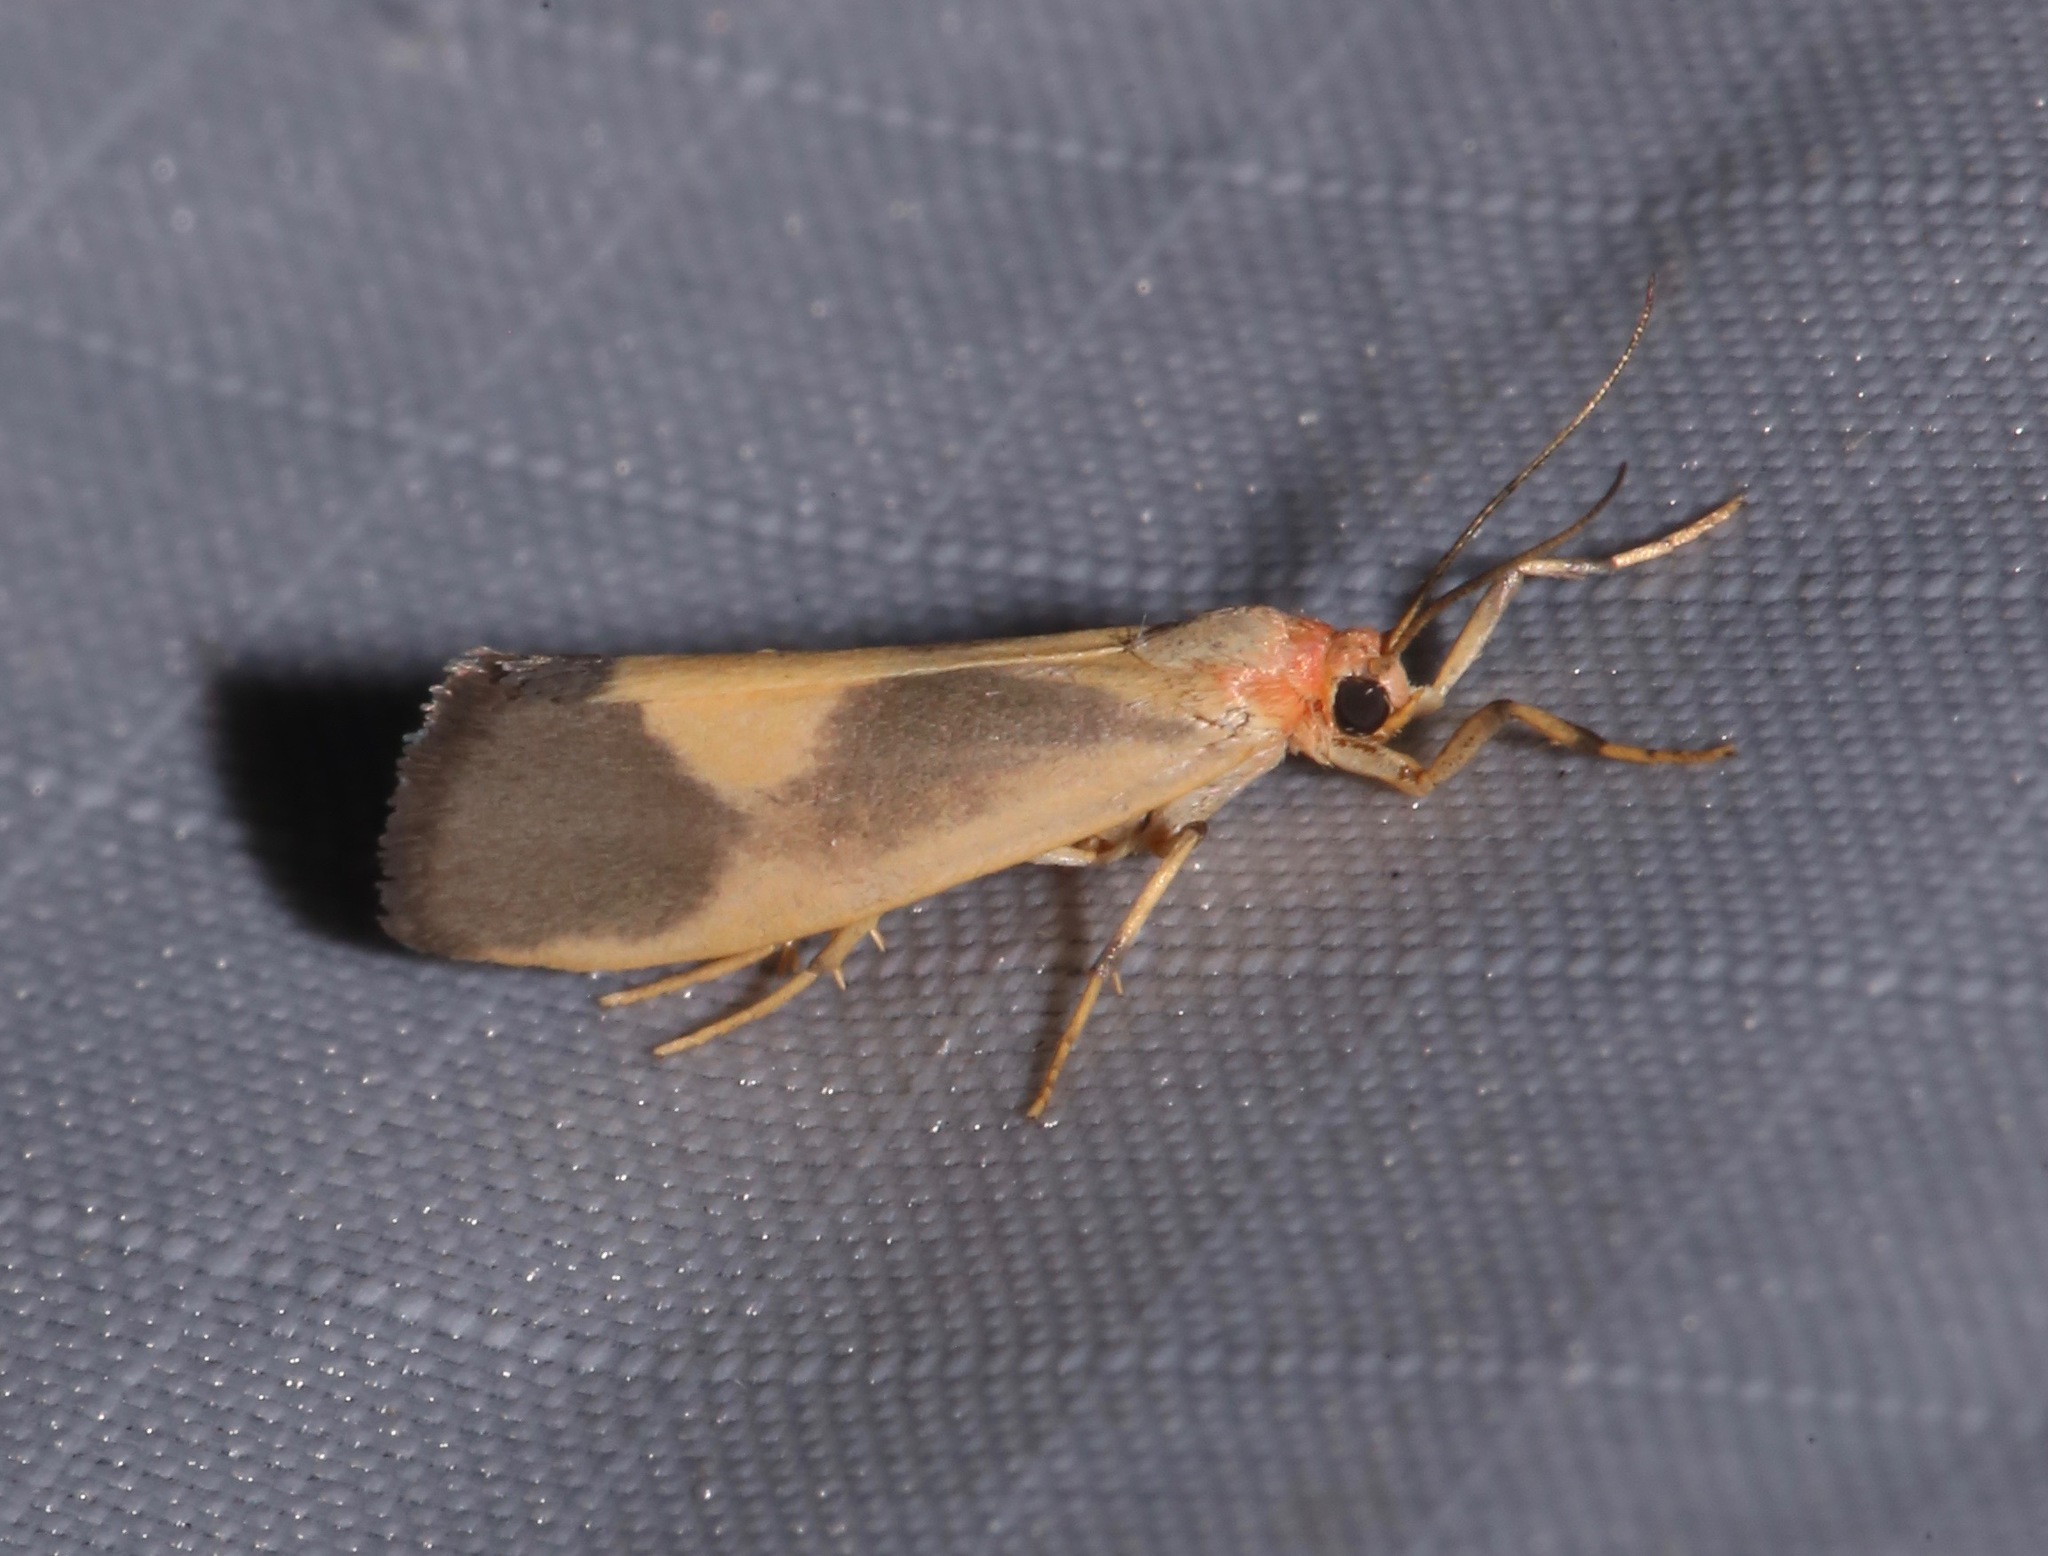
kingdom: Animalia
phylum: Arthropoda
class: Insecta
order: Lepidoptera
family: Erebidae
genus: Cisthene
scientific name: Cisthene plumbea
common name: Lead colored lichen moth
